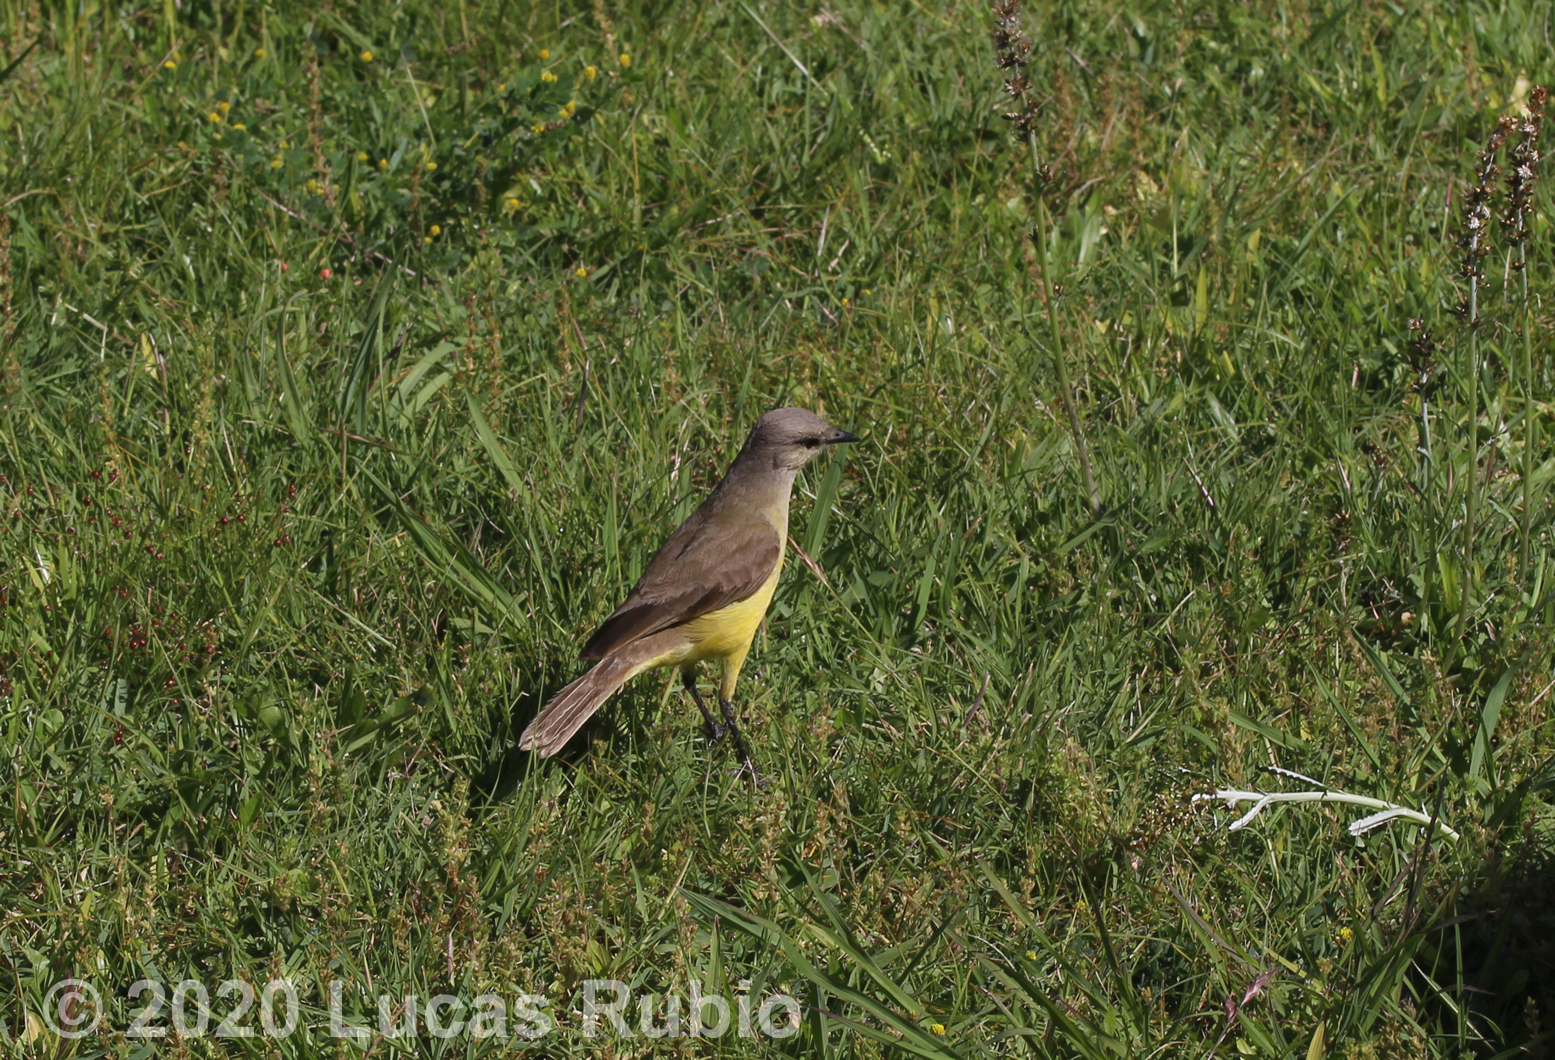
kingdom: Animalia
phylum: Chordata
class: Aves
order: Passeriformes
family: Tyrannidae
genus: Machetornis
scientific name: Machetornis rixosa
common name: Cattle tyrant
